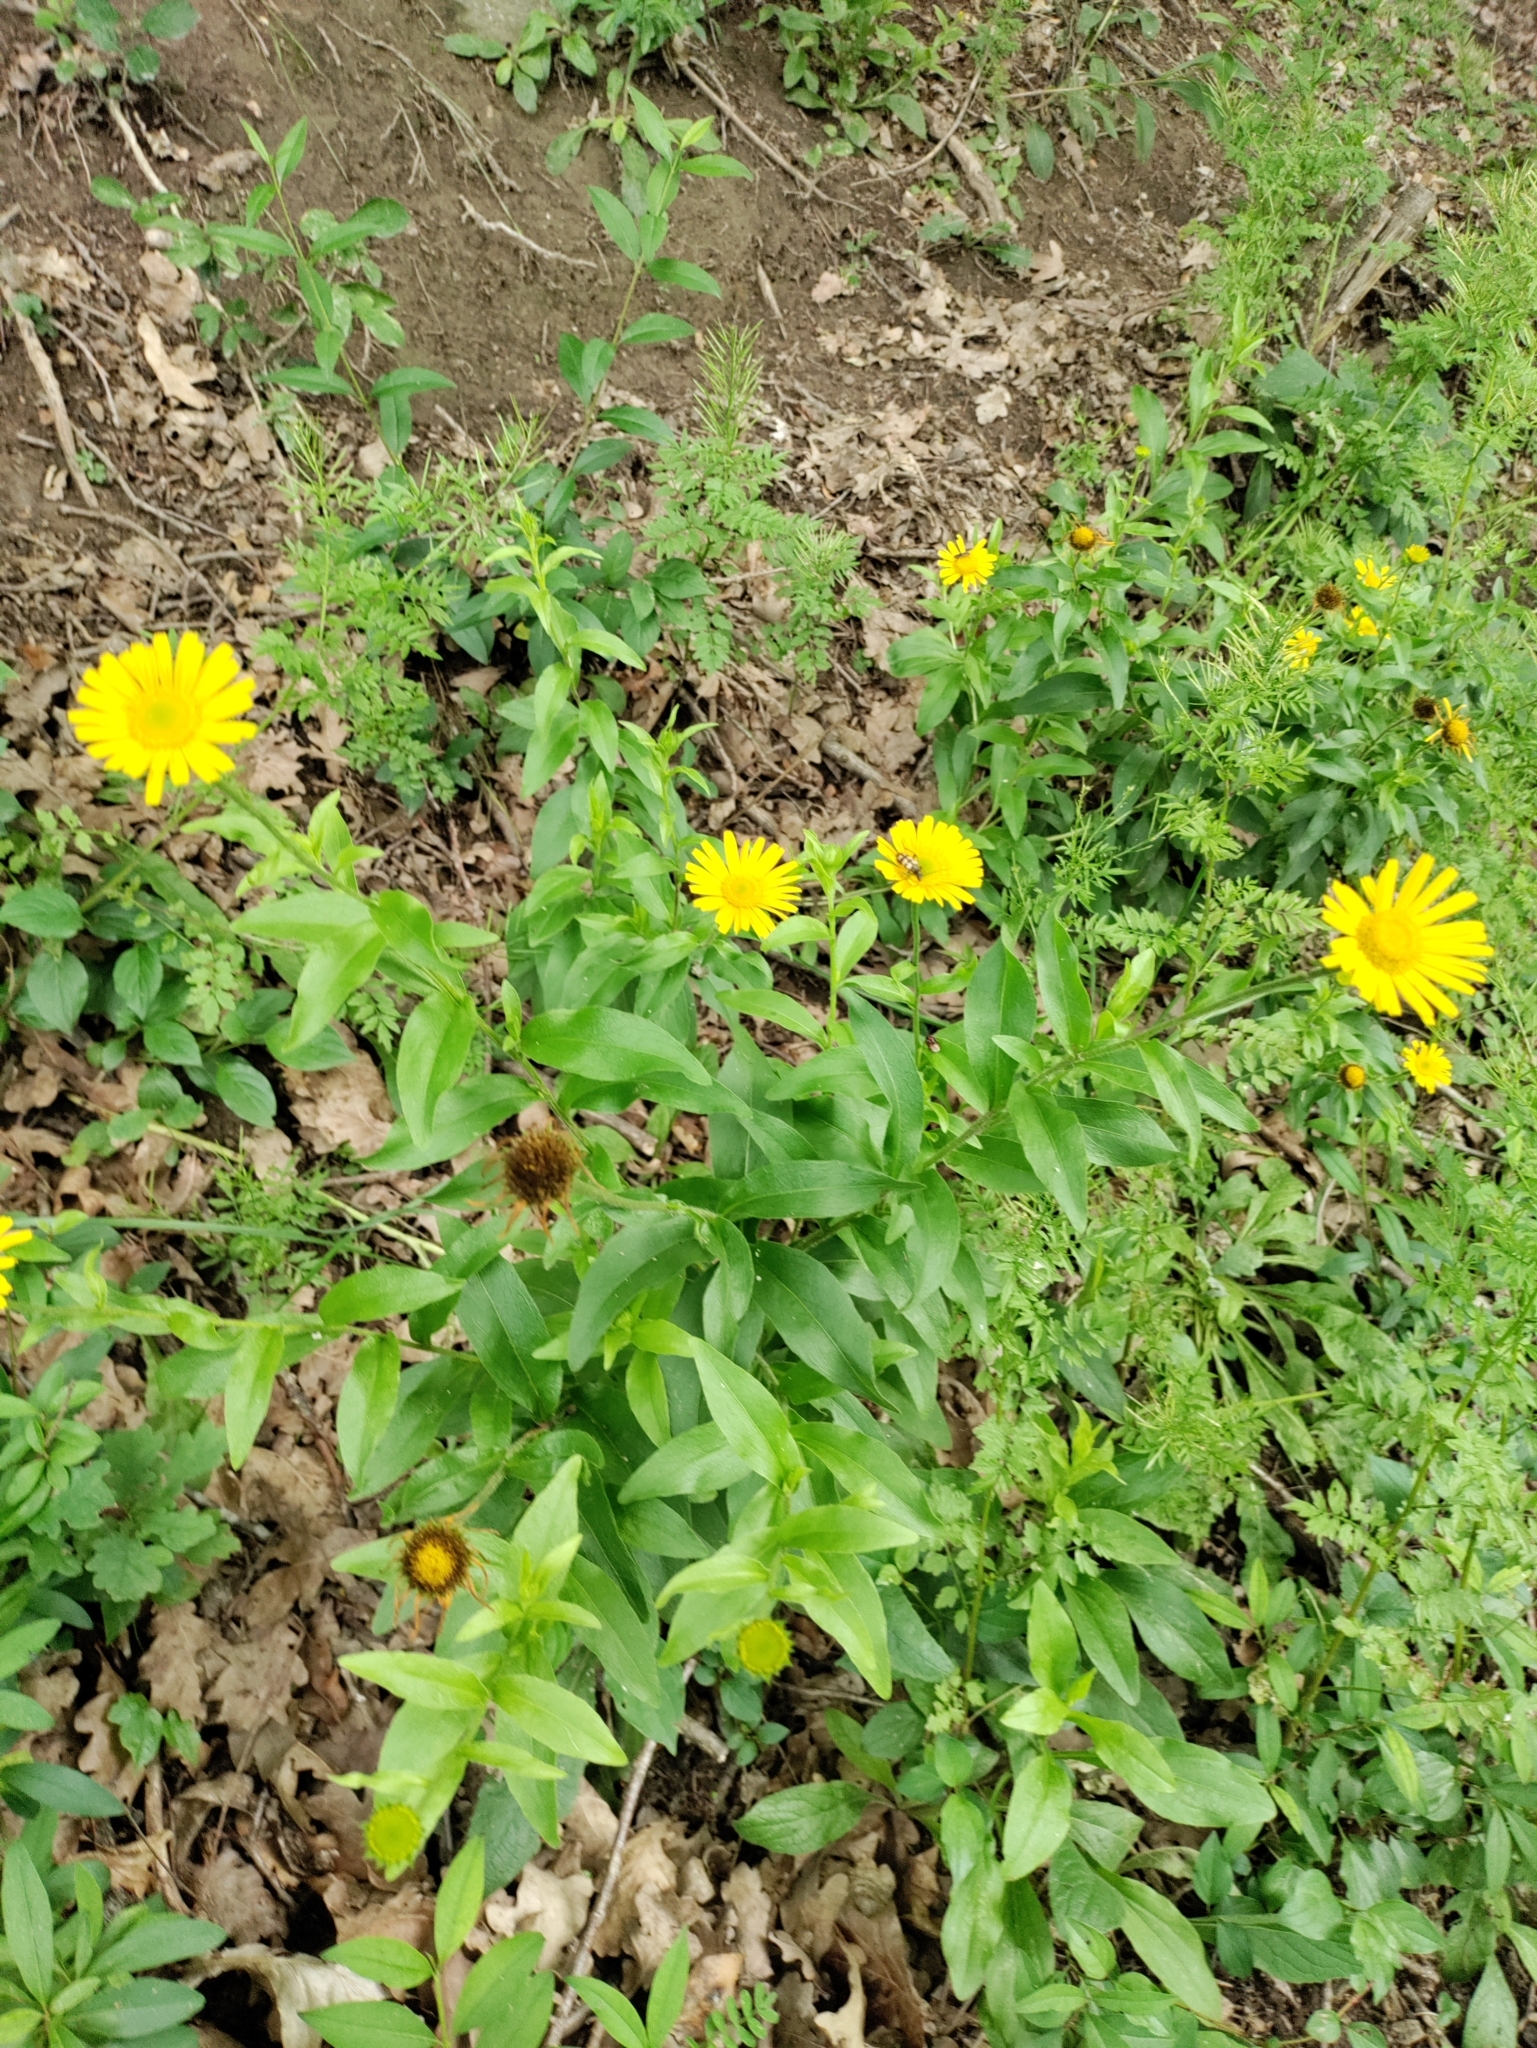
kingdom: Plantae
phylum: Tracheophyta
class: Magnoliopsida
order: Asterales
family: Asteraceae
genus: Buphthalmum
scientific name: Buphthalmum salicifolium
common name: Willow-leaved yellow-oxeye
